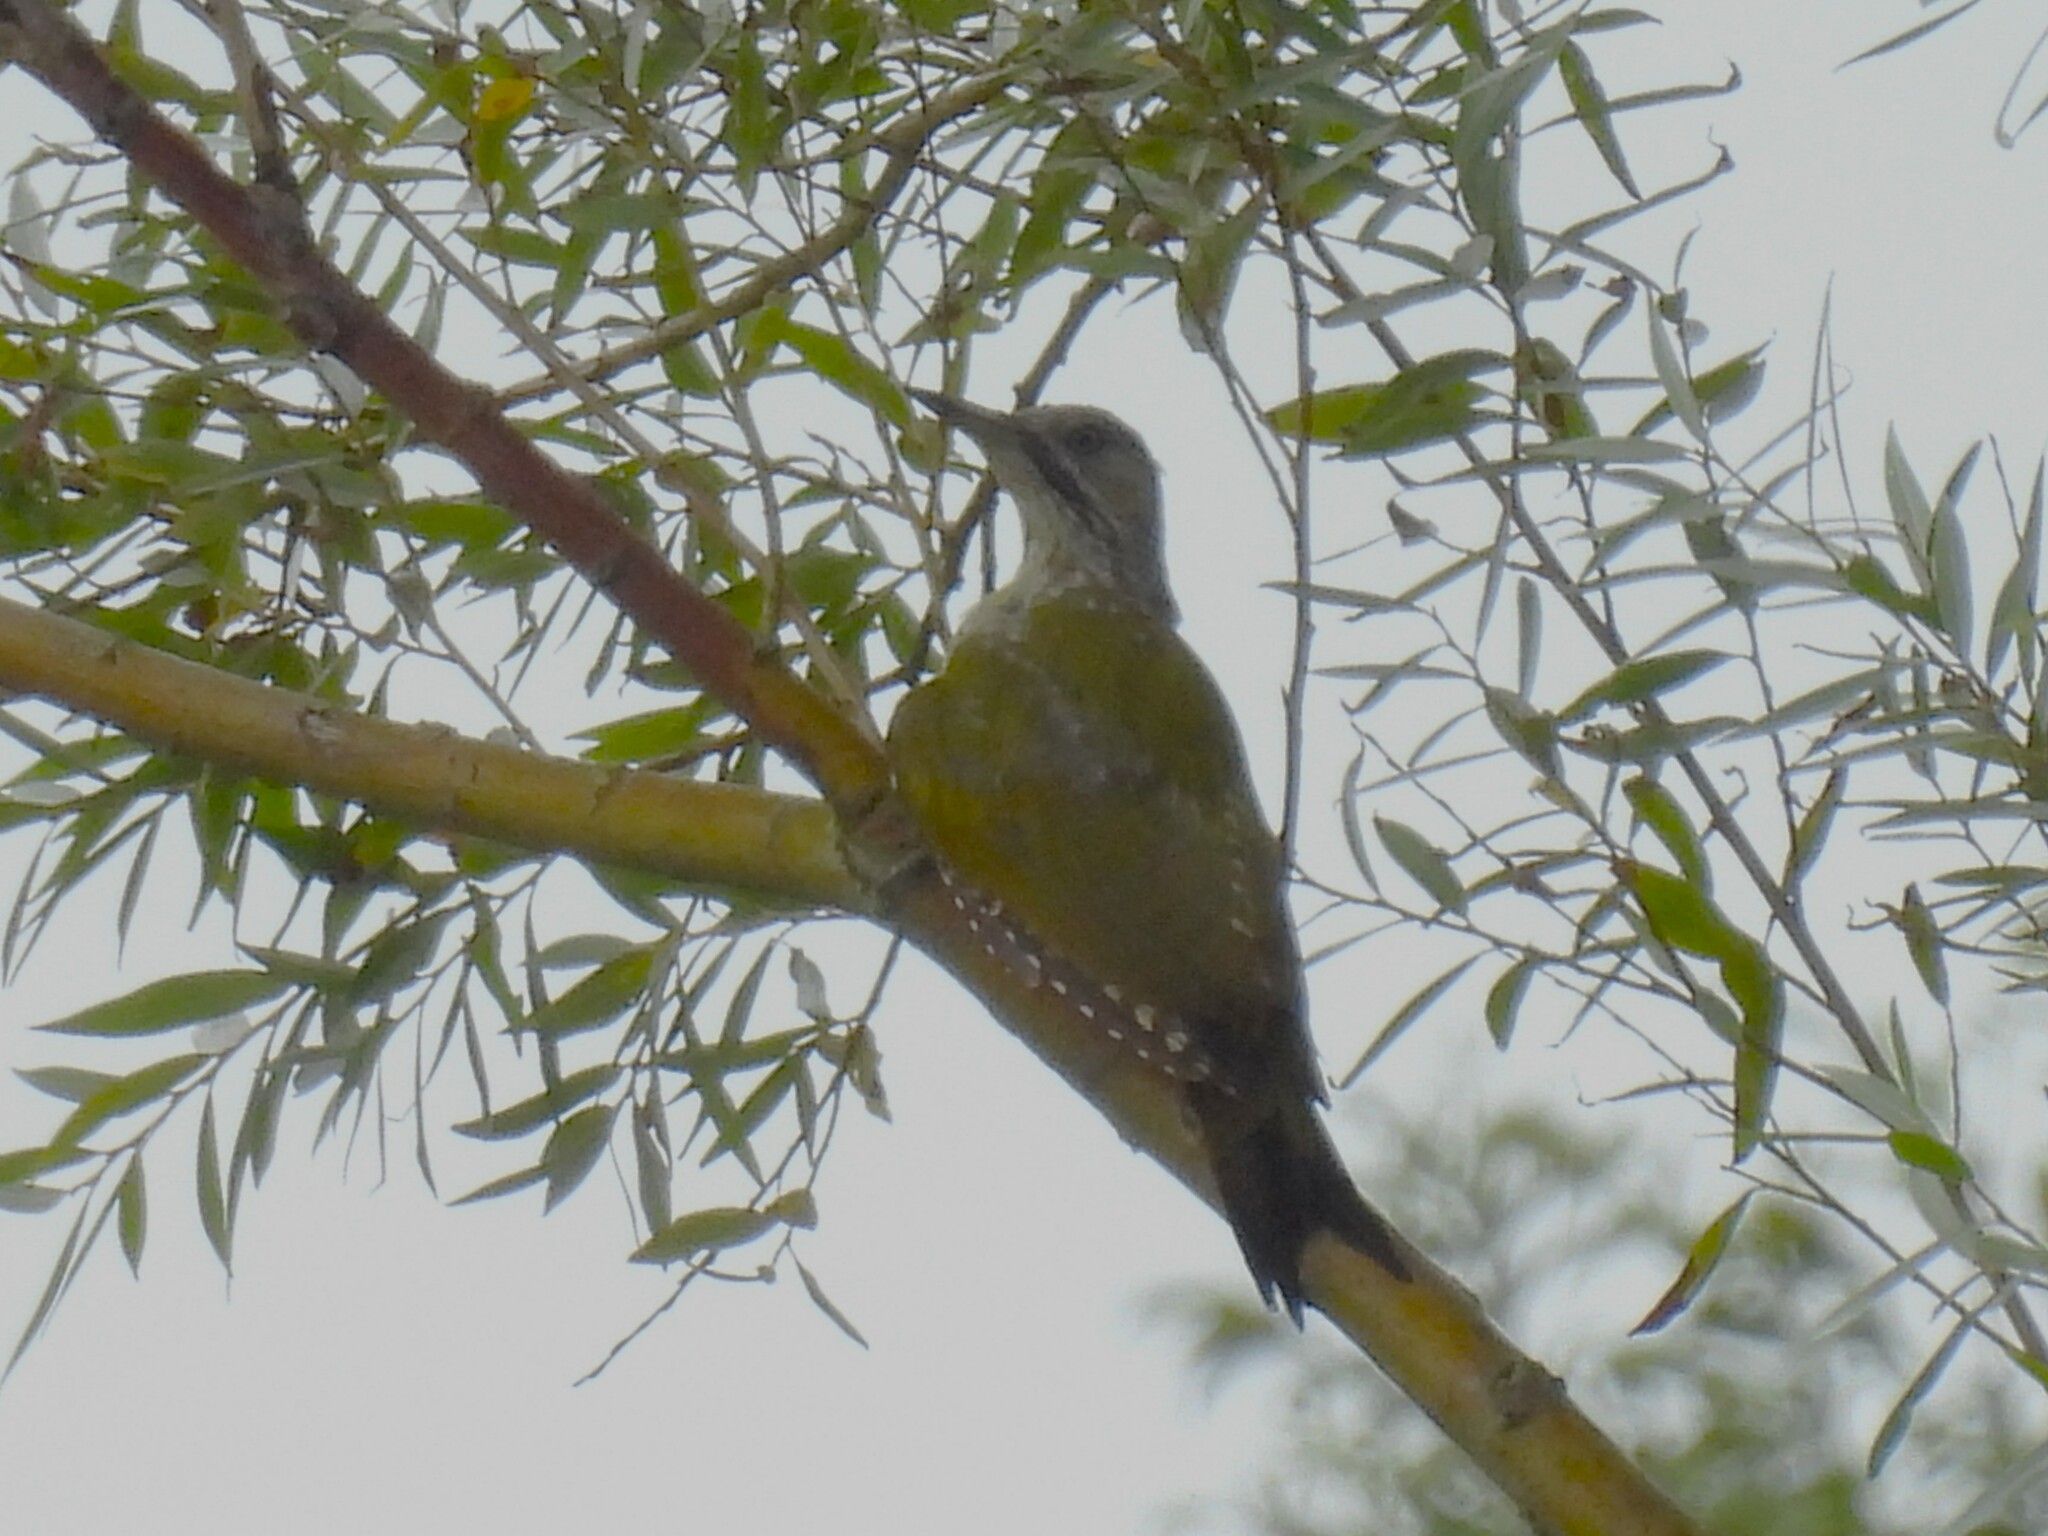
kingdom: Animalia
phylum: Chordata
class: Aves
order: Piciformes
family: Picidae
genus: Picus
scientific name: Picus viridis
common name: European green woodpecker
